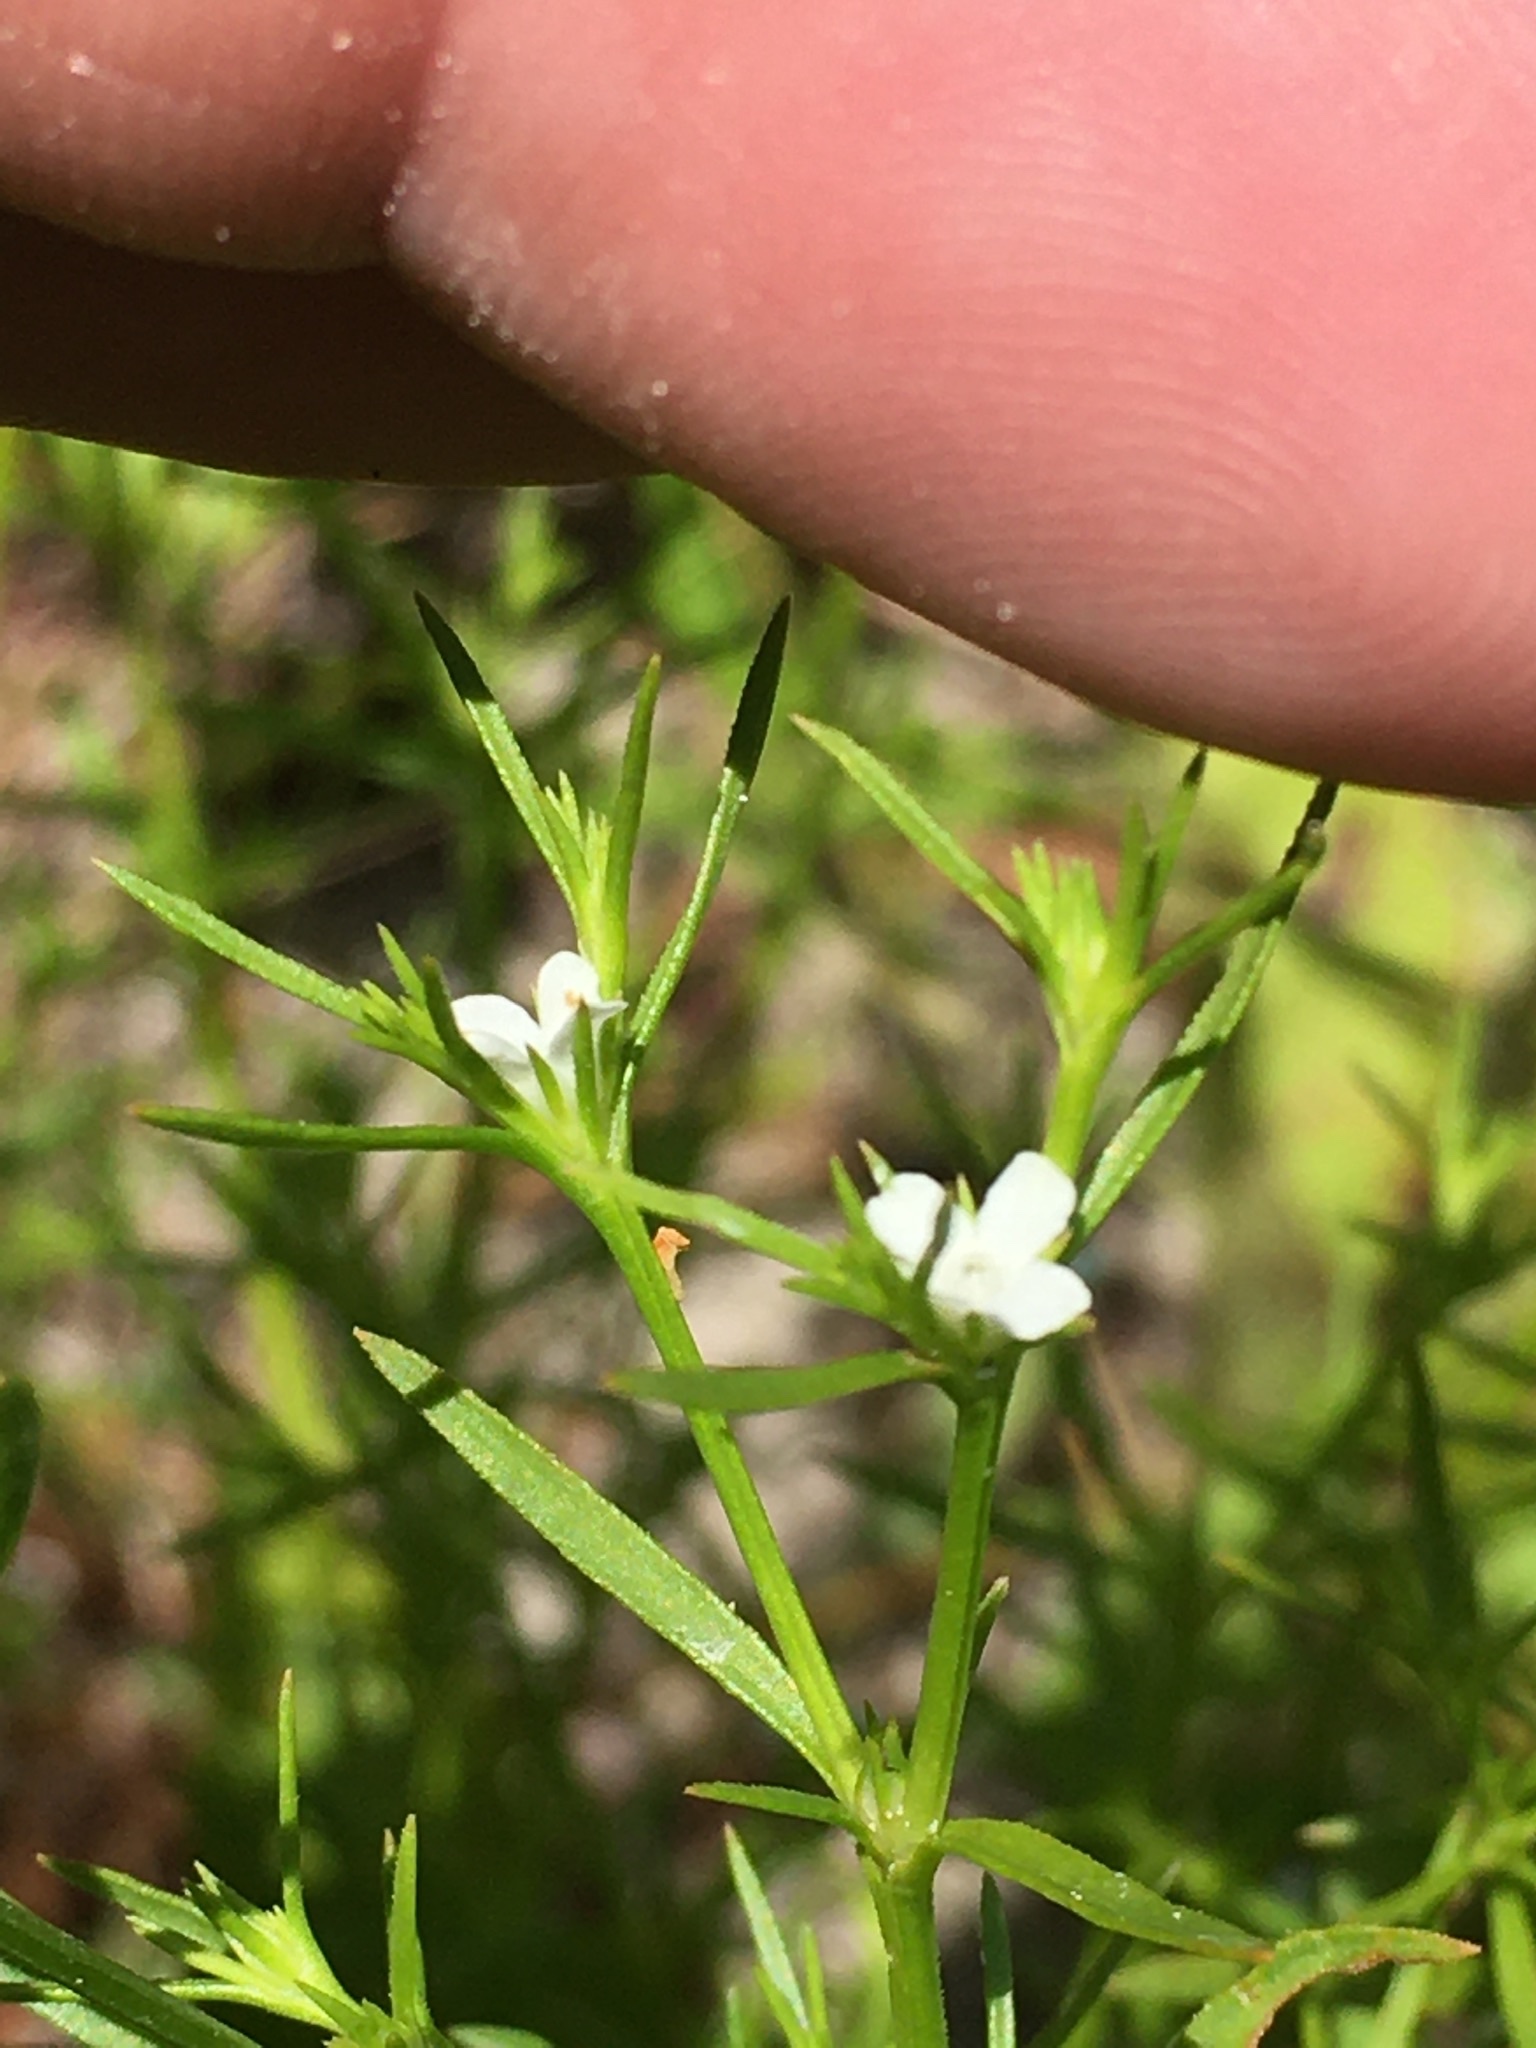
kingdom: Plantae
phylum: Tracheophyta
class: Magnoliopsida
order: Lamiales
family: Tetrachondraceae
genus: Polypremum
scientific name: Polypremum procumbens
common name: Juniper-leaf
